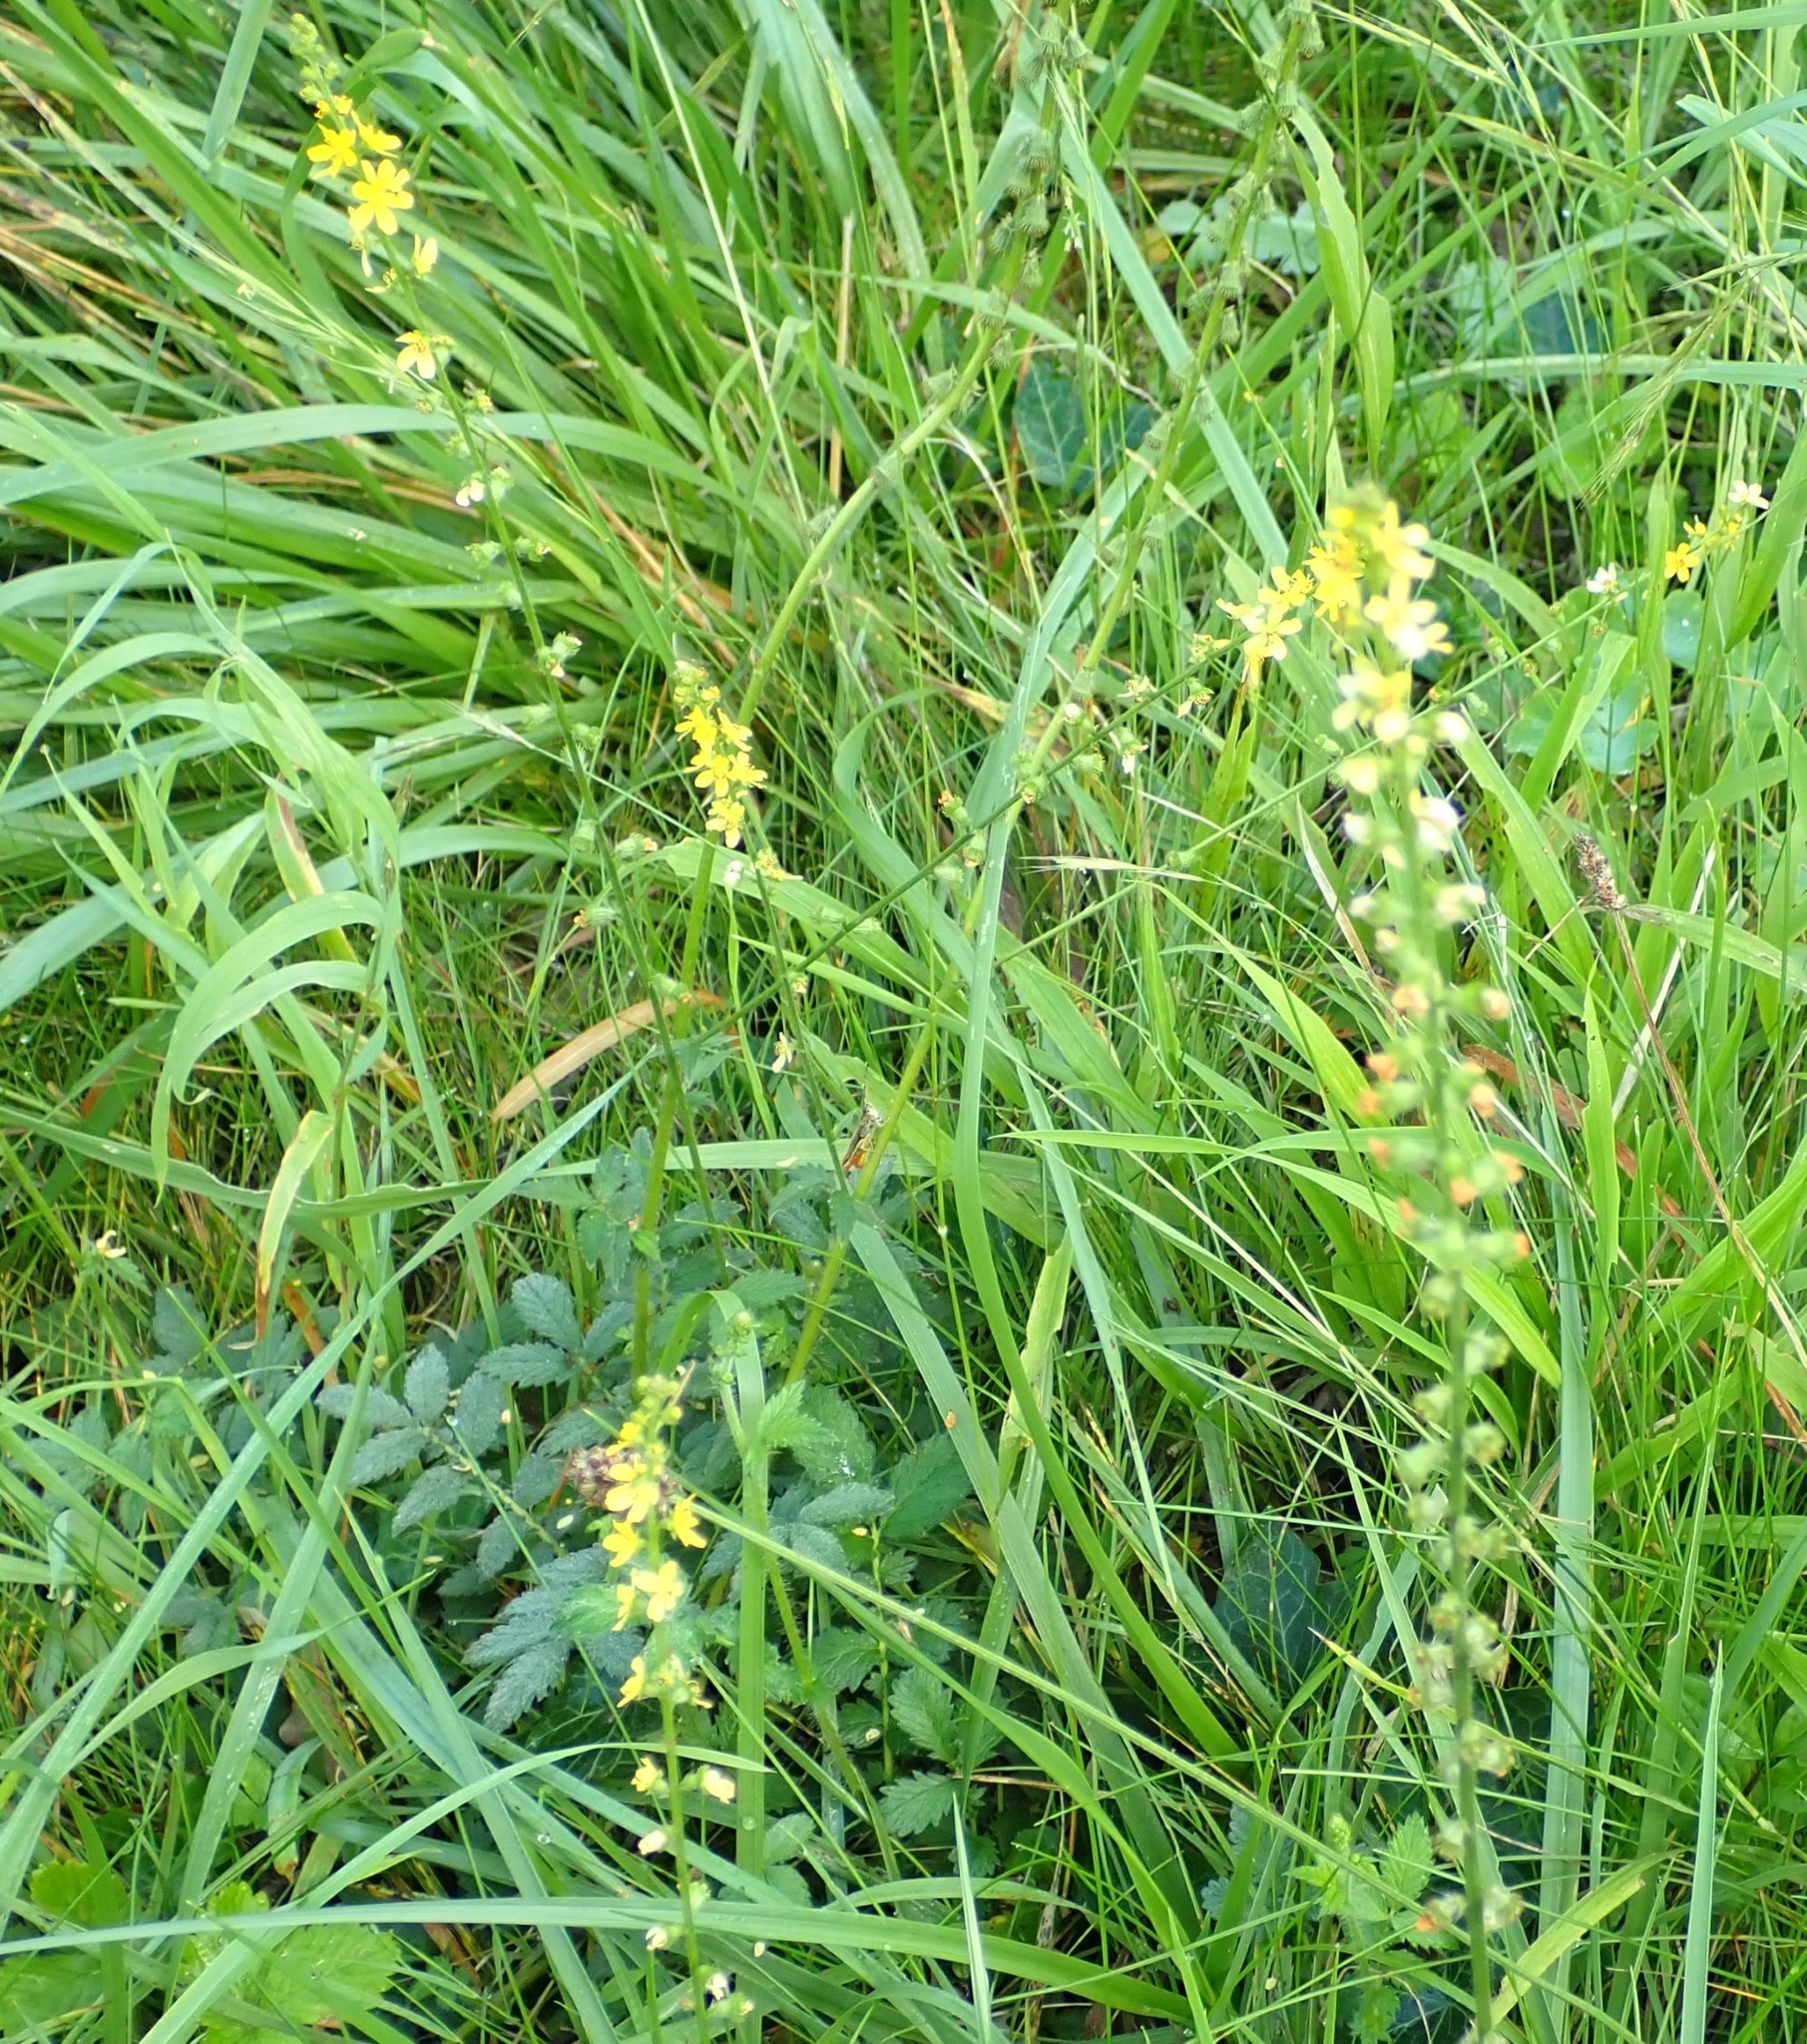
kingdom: Plantae
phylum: Tracheophyta
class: Magnoliopsida
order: Rosales
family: Rosaceae
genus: Agrimonia
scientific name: Agrimonia eupatoria
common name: Agrimony
